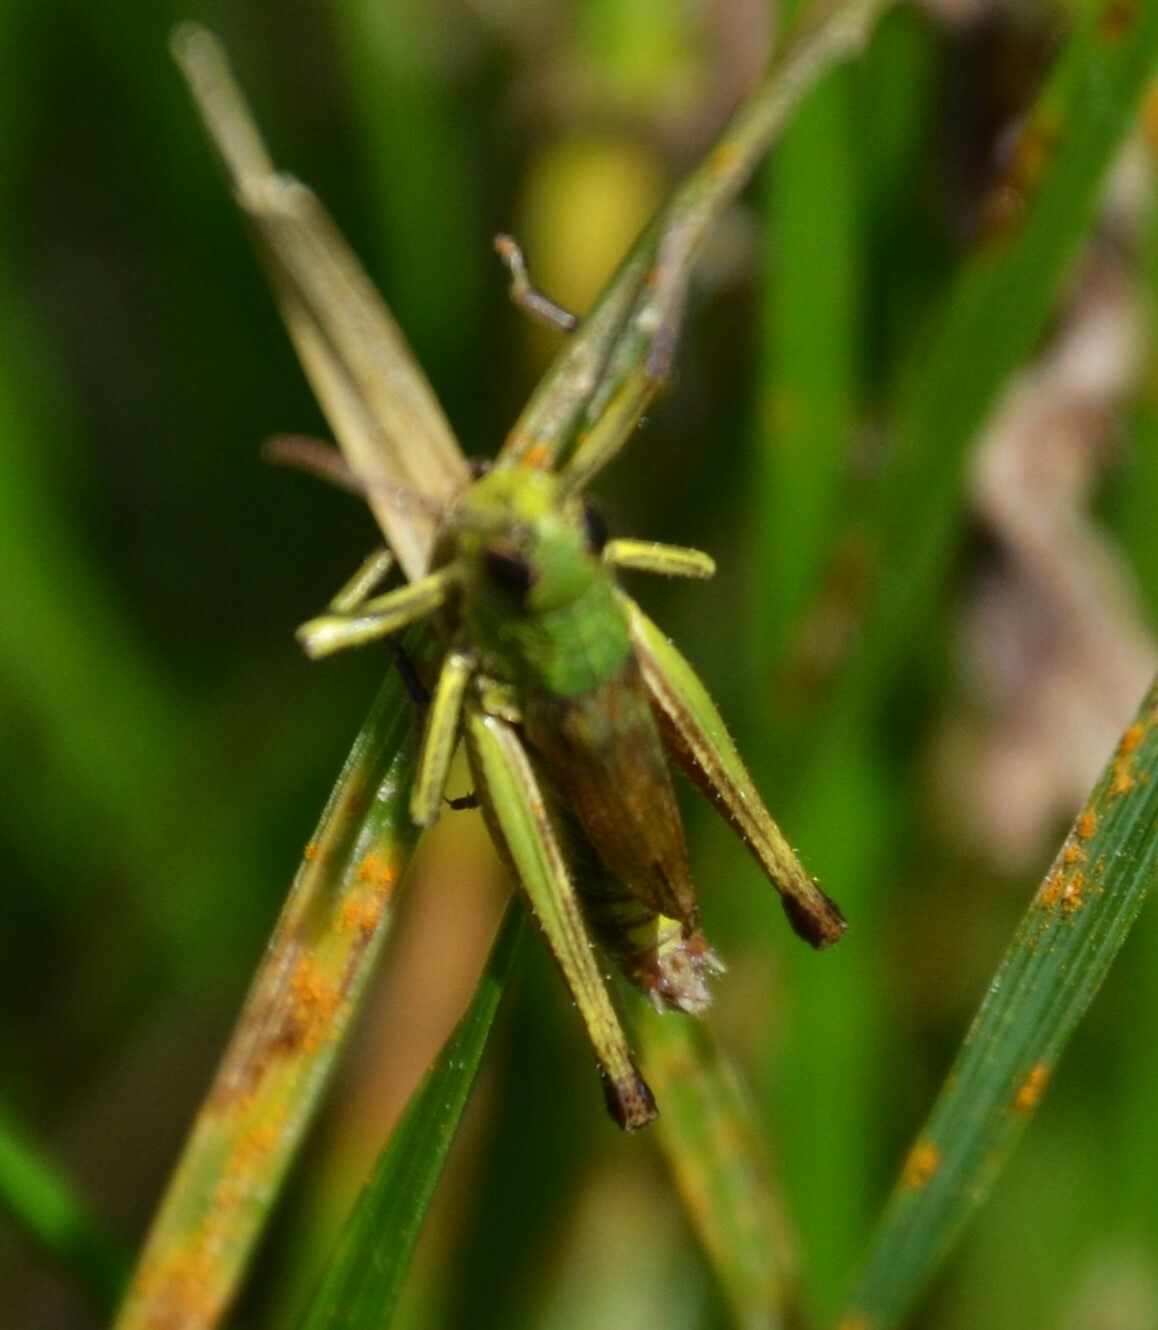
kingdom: Animalia
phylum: Arthropoda
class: Insecta
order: Orthoptera
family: Acrididae
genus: Pseudochorthippus
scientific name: Pseudochorthippus parallelus
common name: Meadow grasshopper
